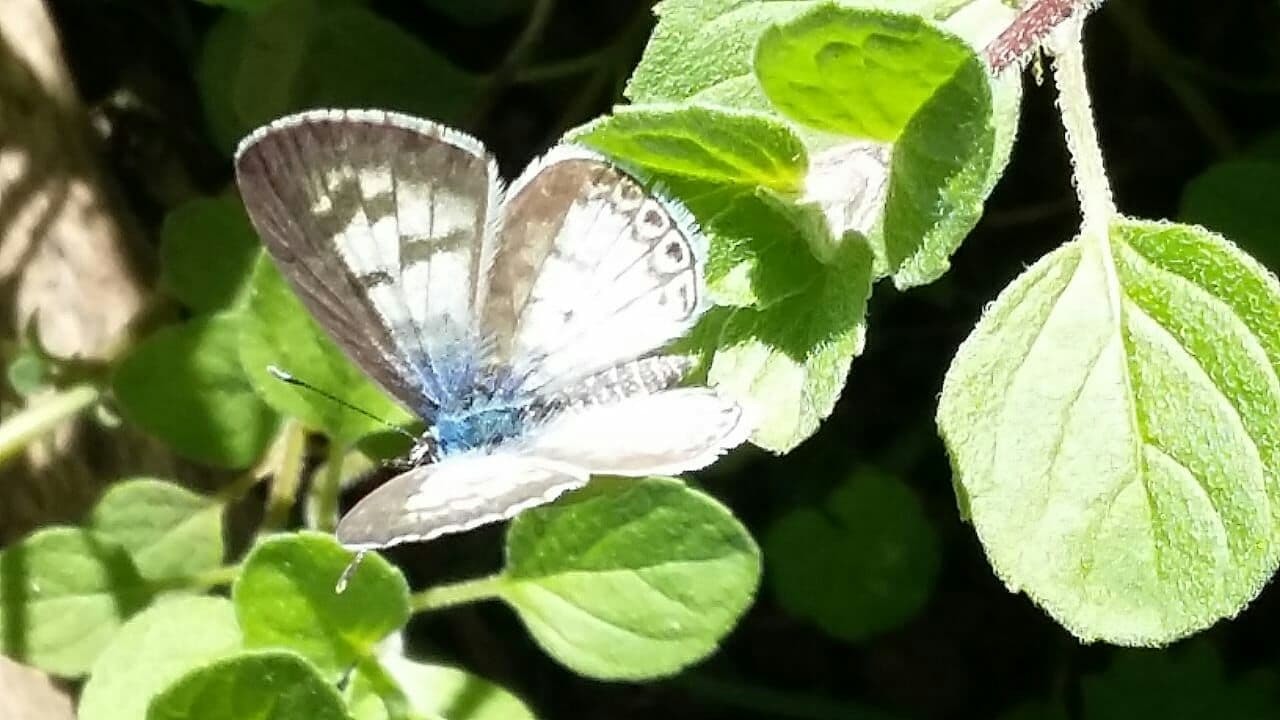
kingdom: Animalia
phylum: Arthropoda
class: Insecta
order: Lepidoptera
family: Lycaenidae
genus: Leptotes
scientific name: Leptotes cassius
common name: Cassius blue
